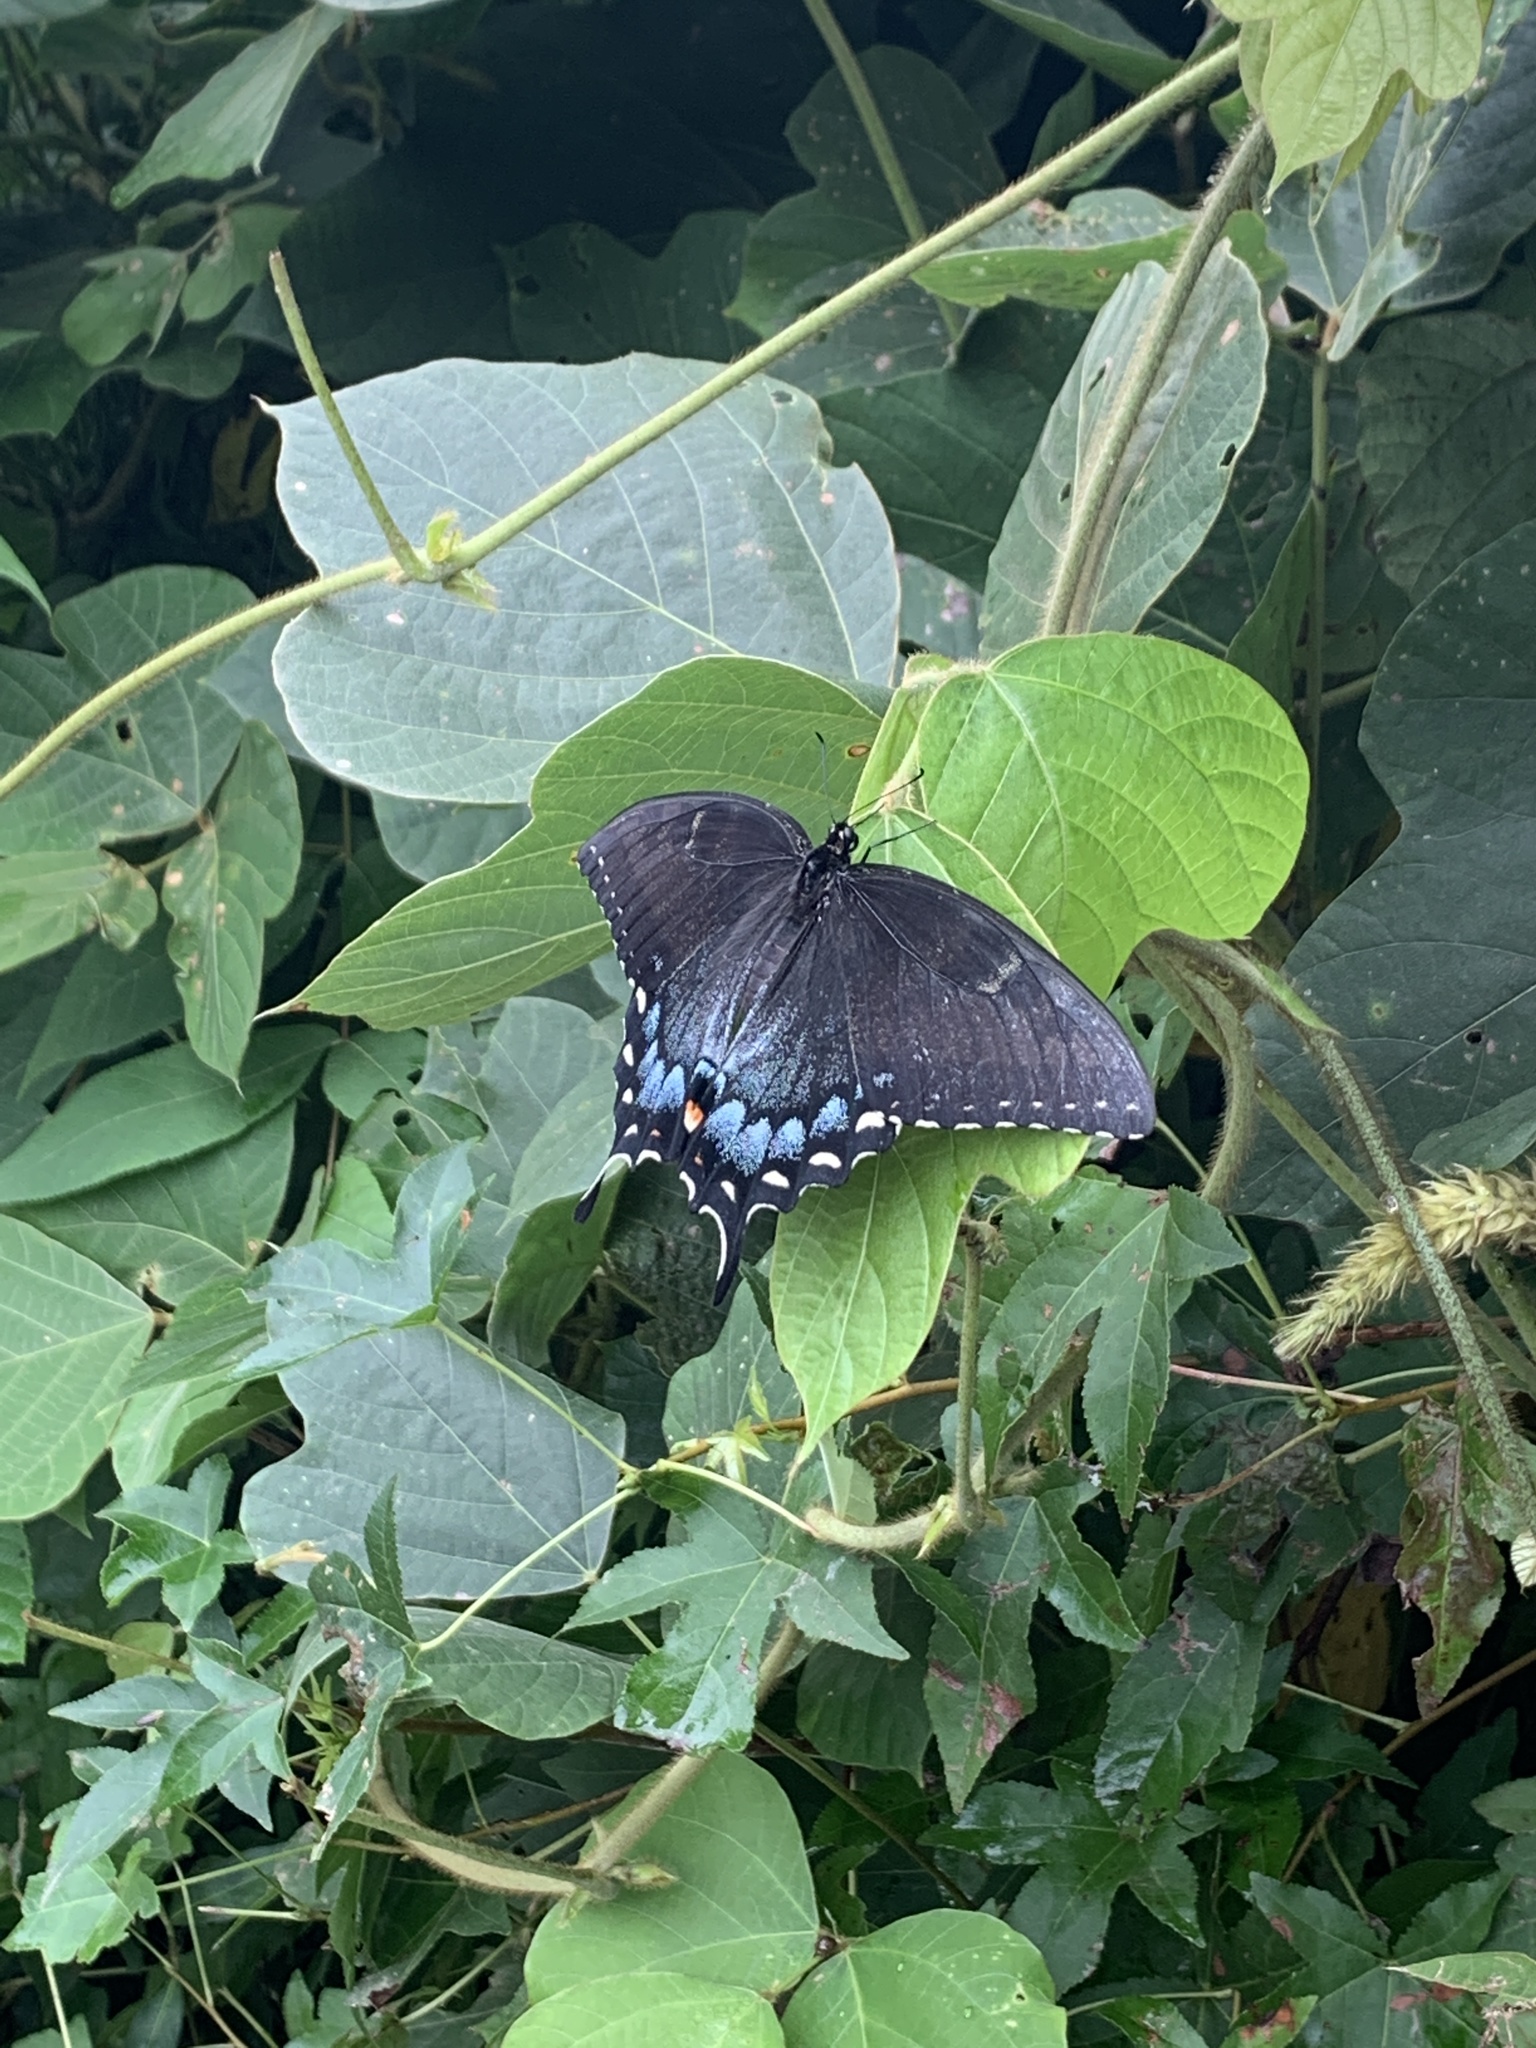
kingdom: Animalia
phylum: Arthropoda
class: Insecta
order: Lepidoptera
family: Papilionidae
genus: Papilio
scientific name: Papilio glaucus
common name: Tiger swallowtail
